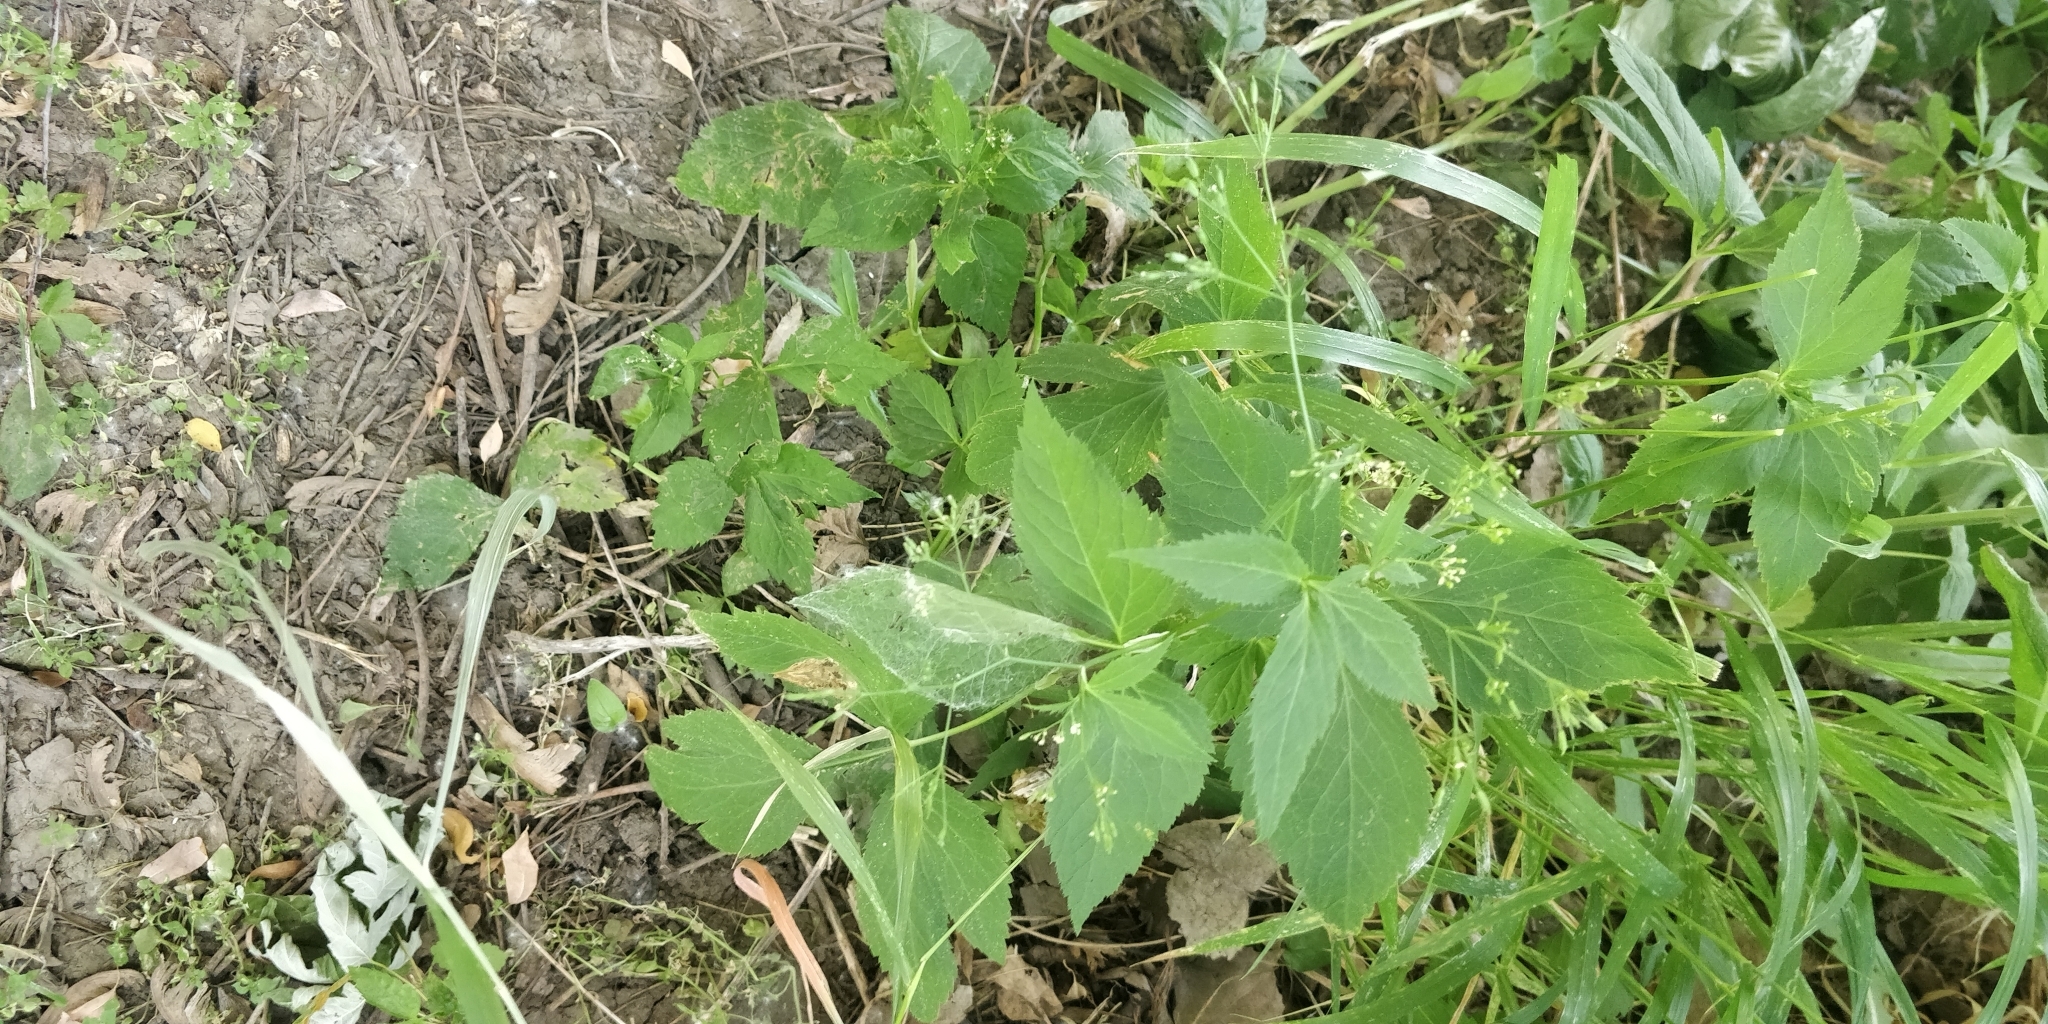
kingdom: Plantae
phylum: Tracheophyta
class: Magnoliopsida
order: Apiales
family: Apiaceae
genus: Cryptotaenia
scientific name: Cryptotaenia canadensis
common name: Honewort
